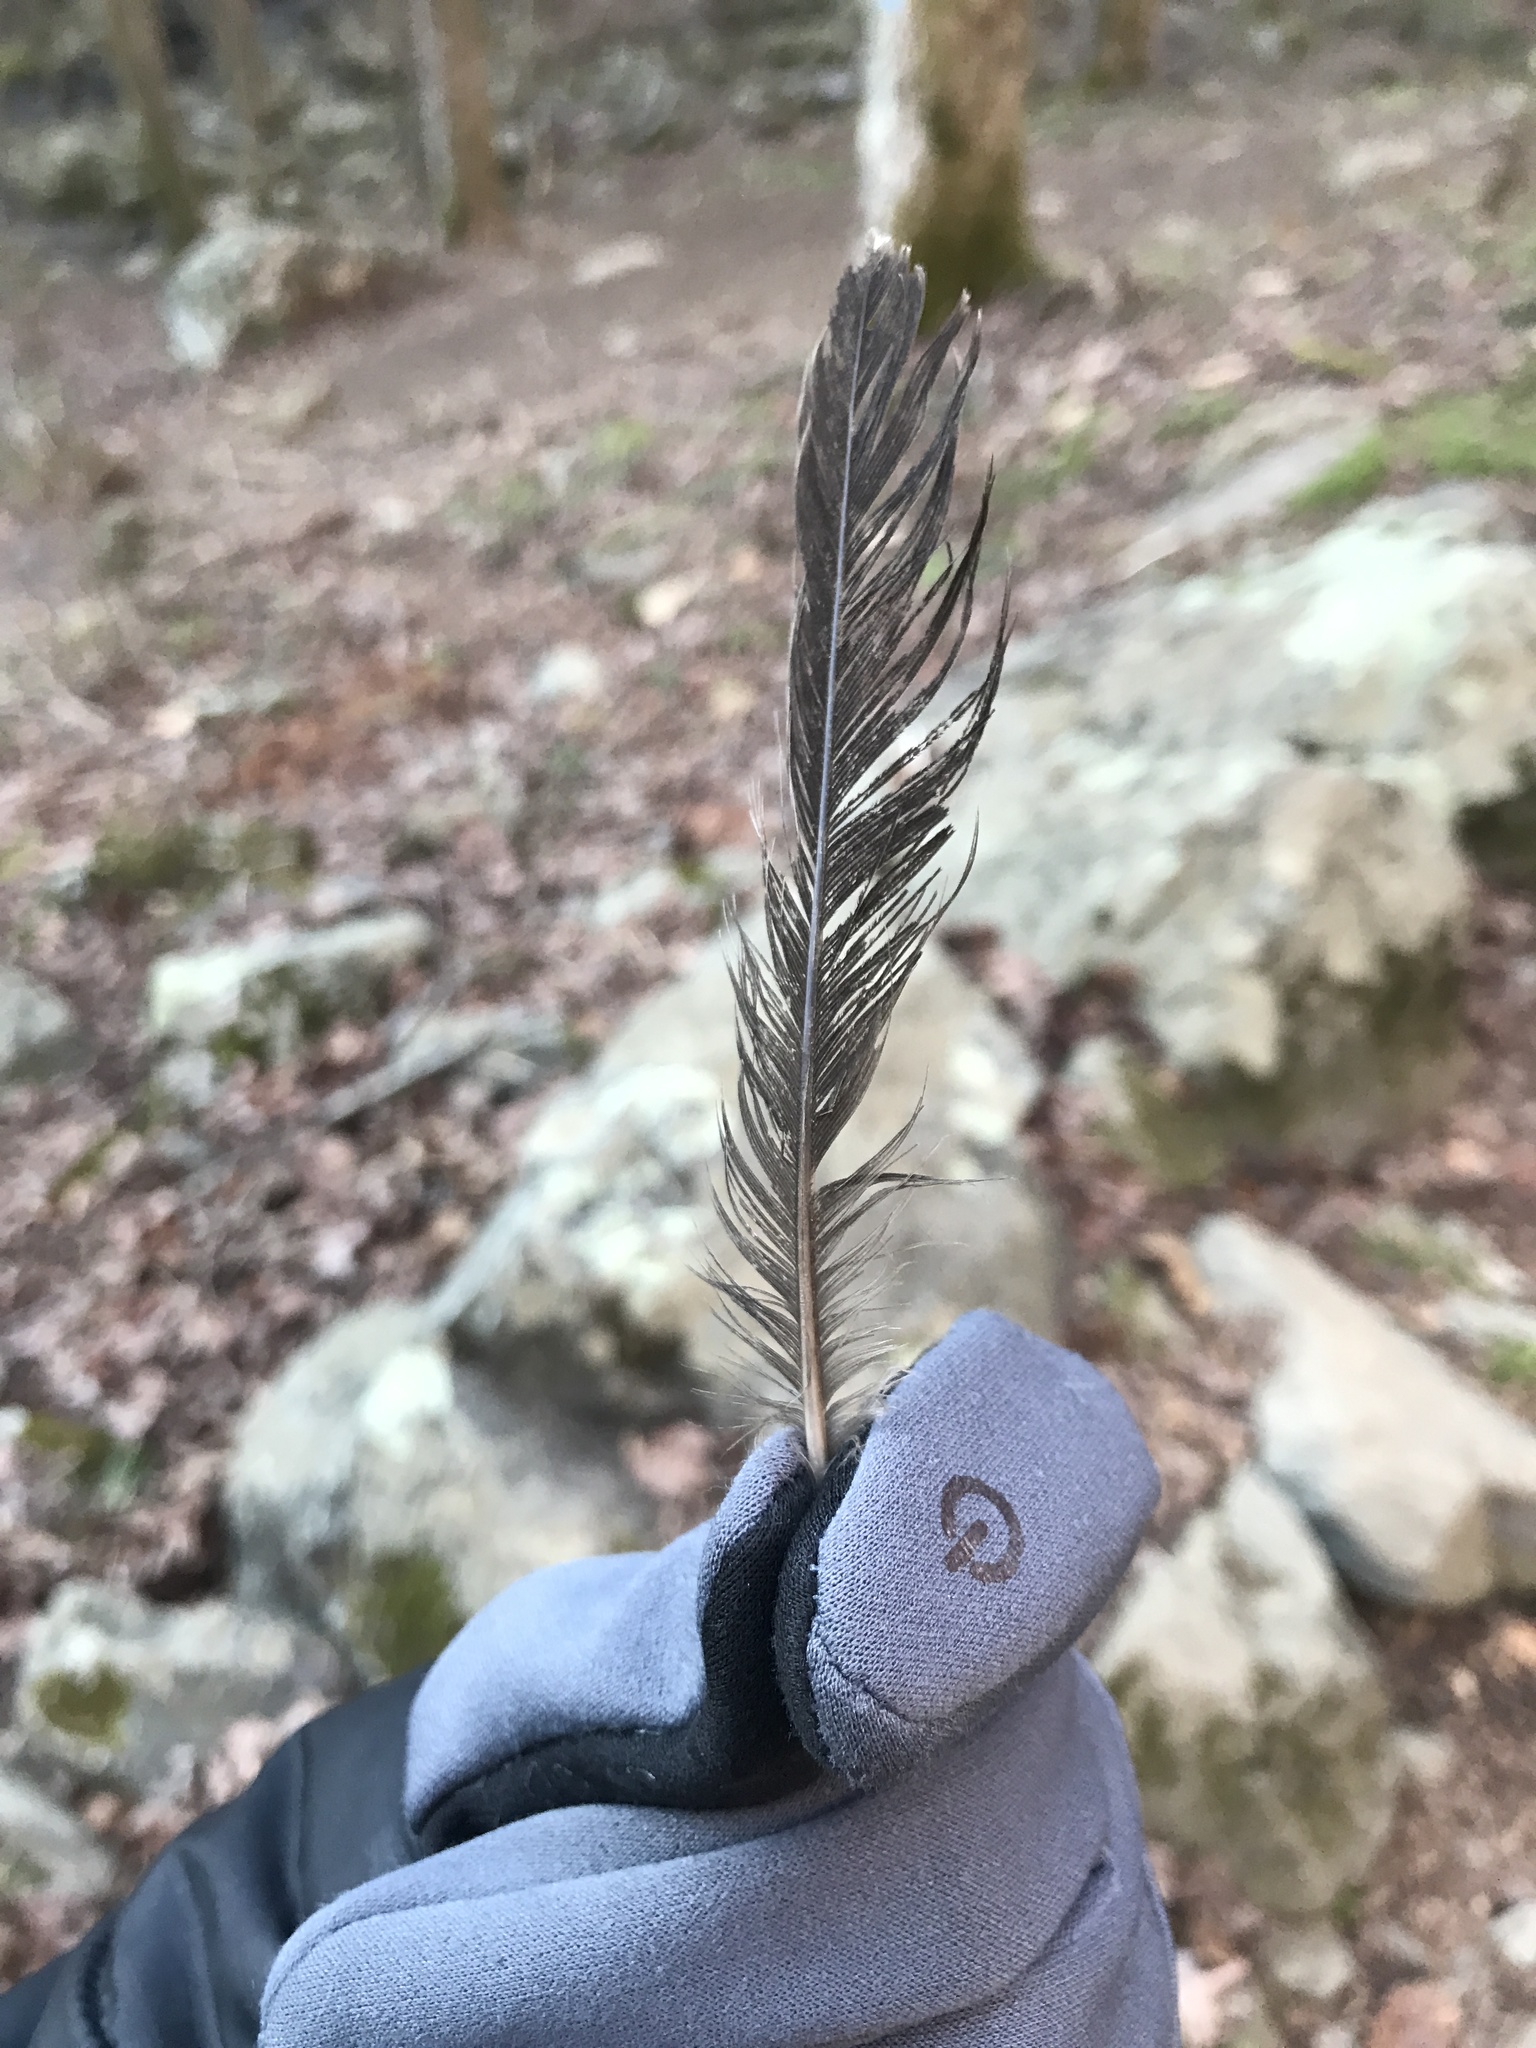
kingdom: Animalia
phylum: Chordata
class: Aves
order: Passeriformes
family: Turdidae
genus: Turdus
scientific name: Turdus migratorius
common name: American robin
